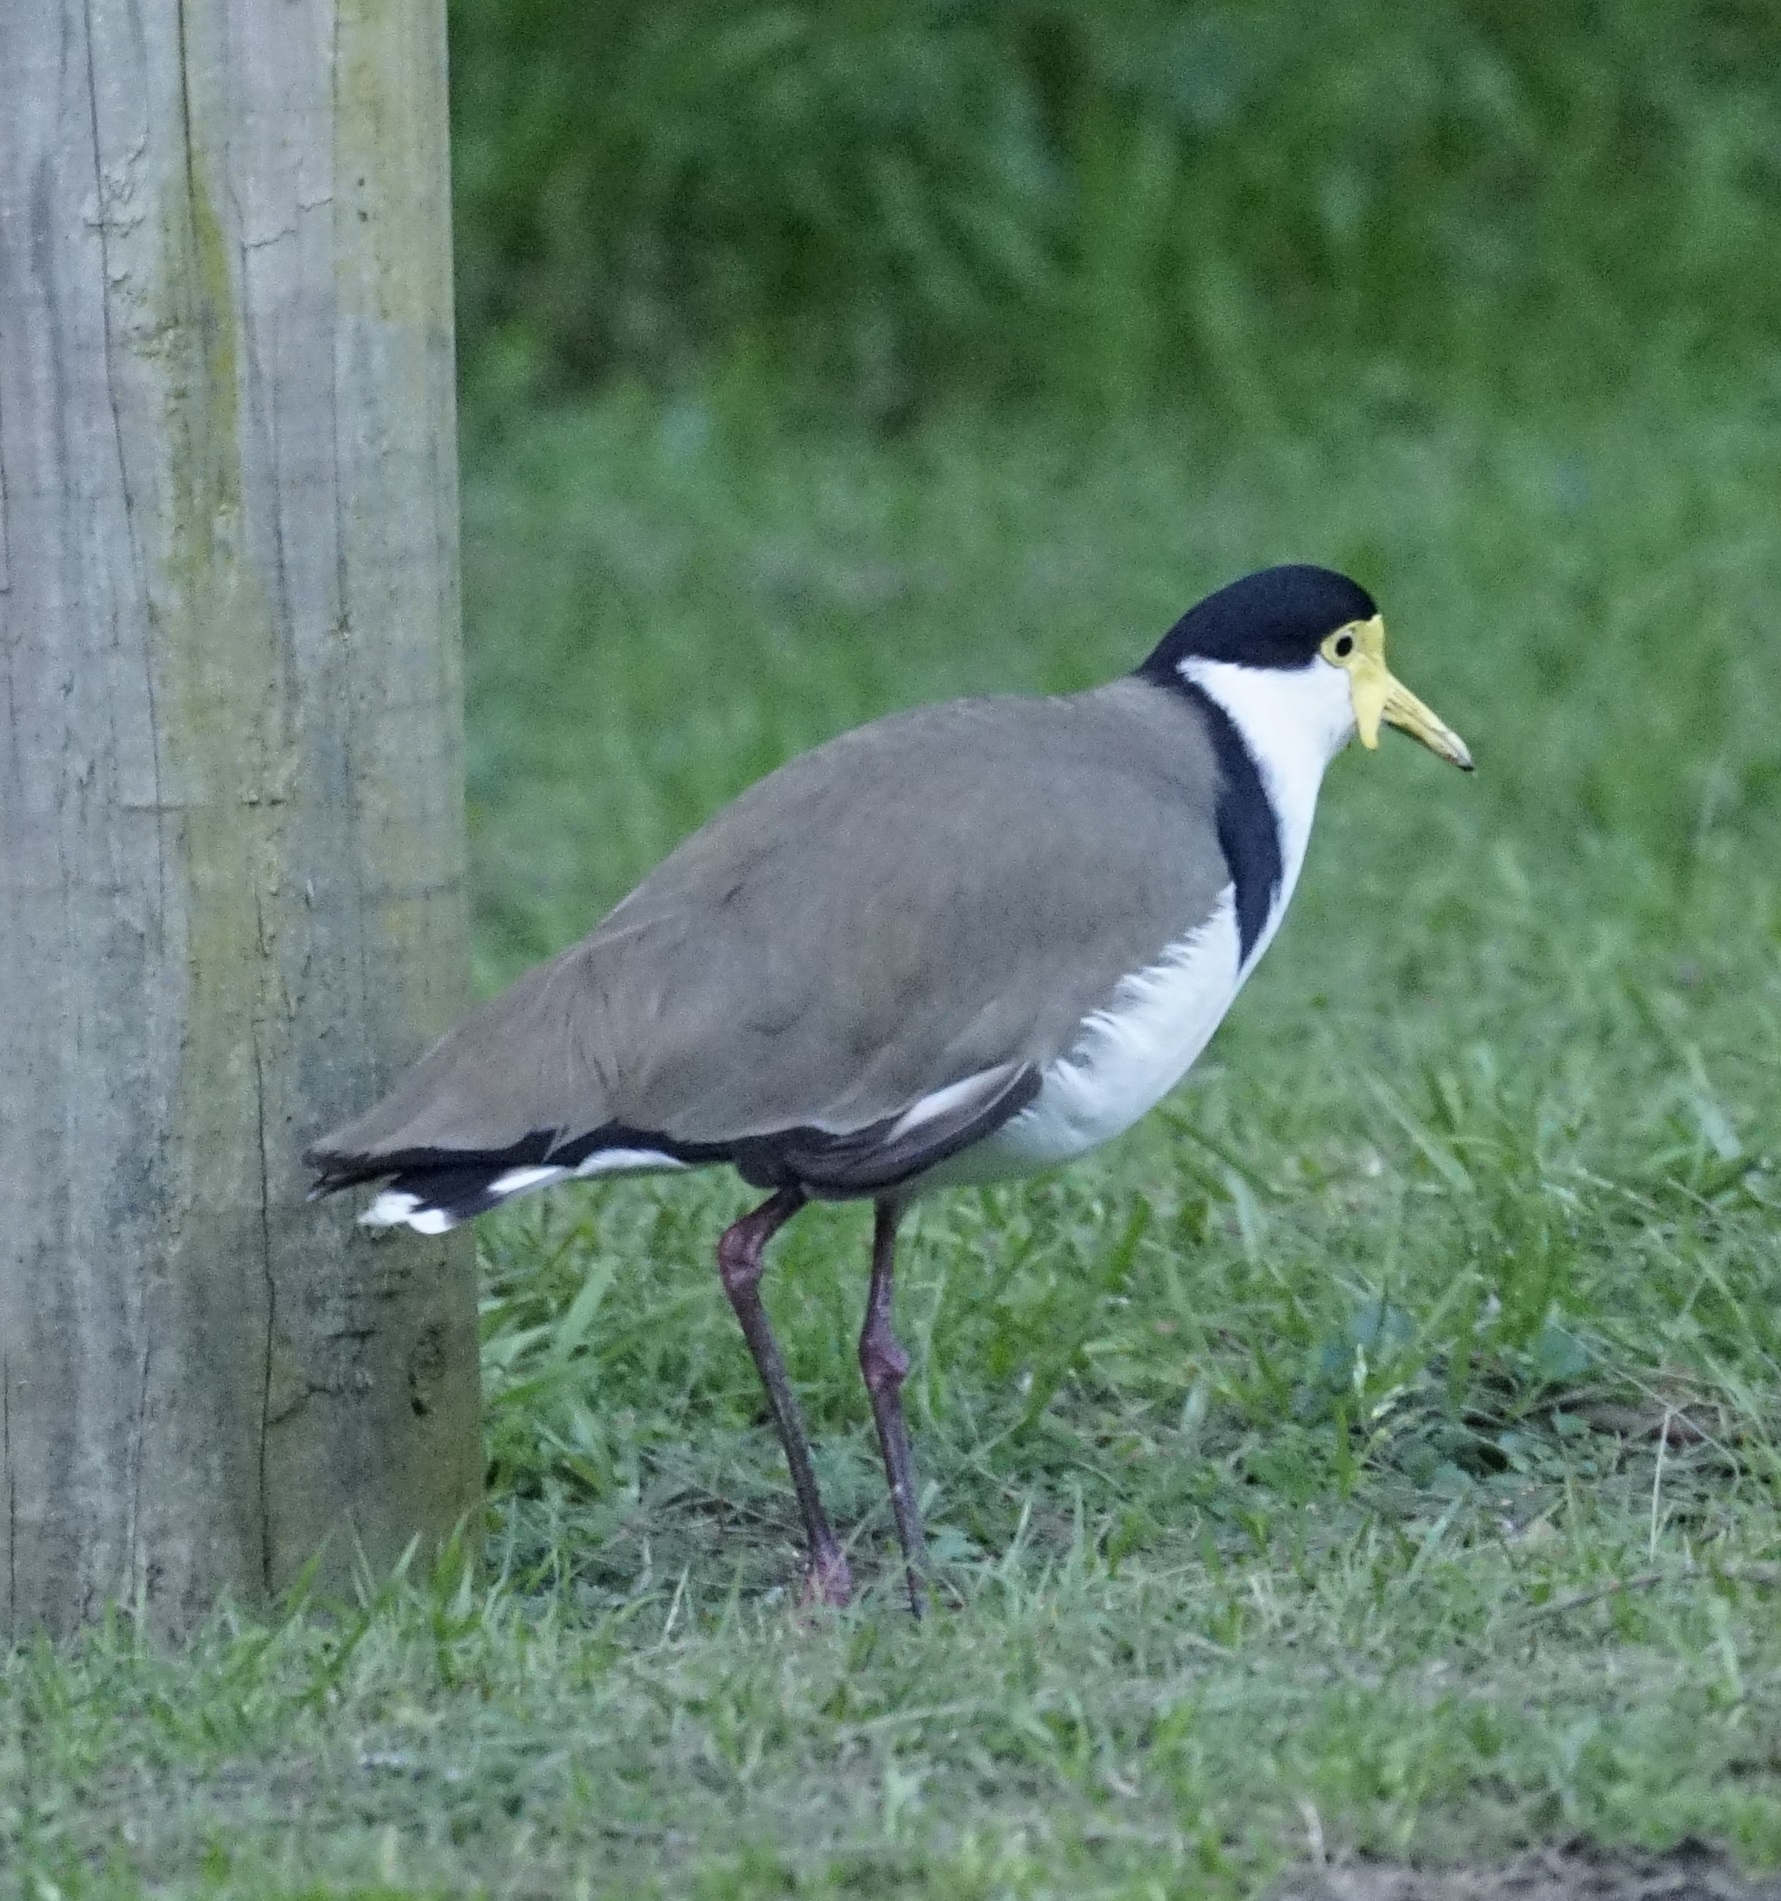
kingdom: Animalia
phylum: Chordata
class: Aves
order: Charadriiformes
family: Charadriidae
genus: Vanellus
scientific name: Vanellus miles
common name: Masked lapwing
